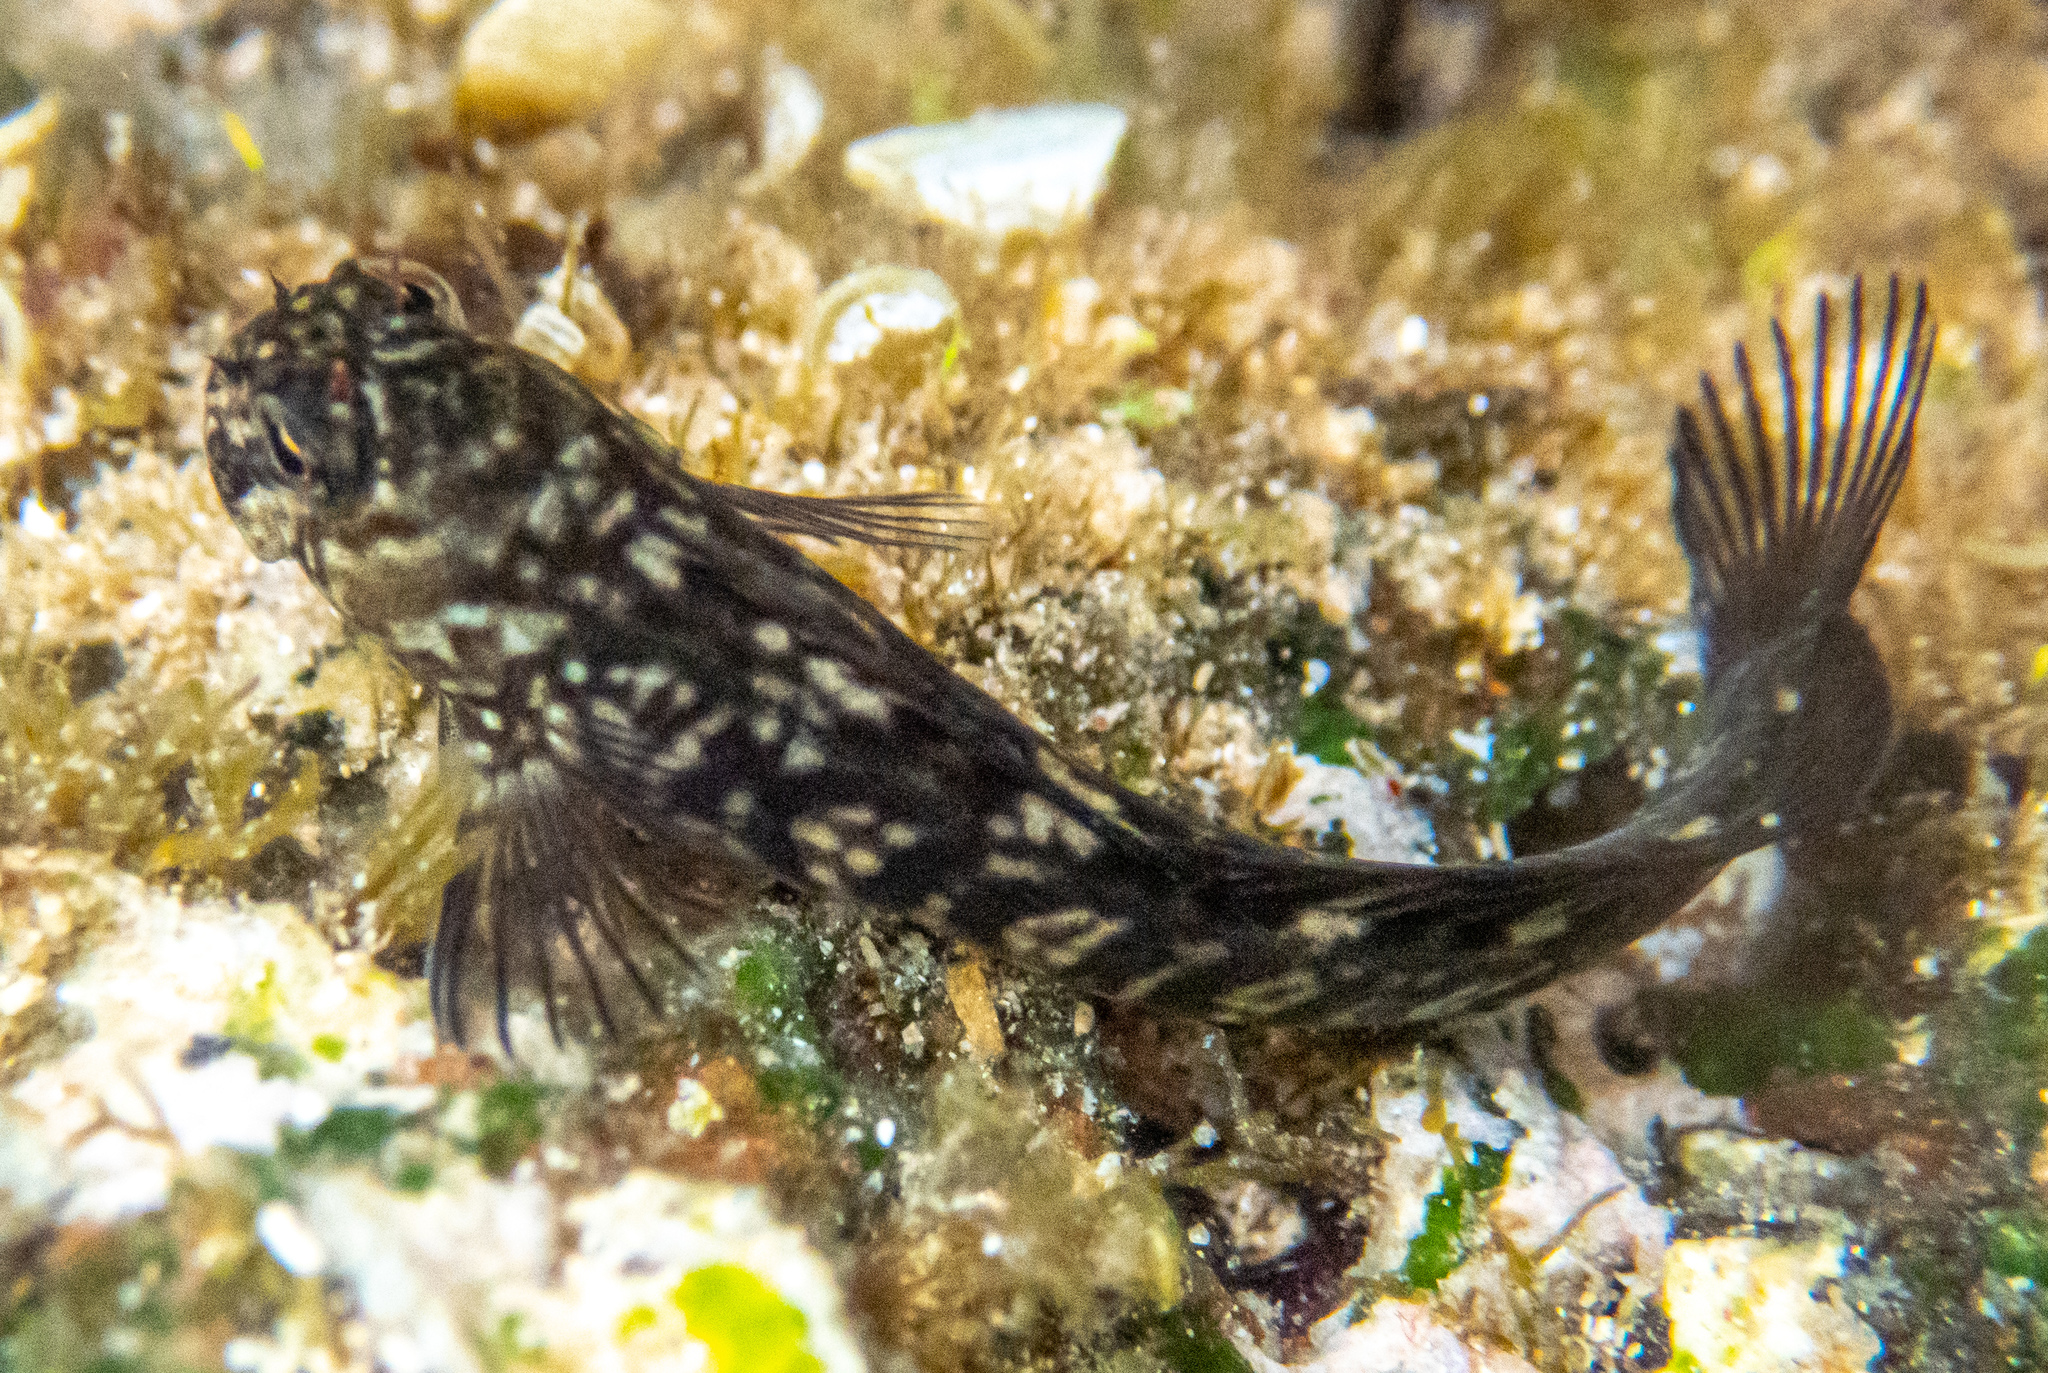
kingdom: Animalia
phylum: Chordata
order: Perciformes
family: Blenniidae
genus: Istiblennius
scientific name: Istiblennius zebra
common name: Zebra blenny
